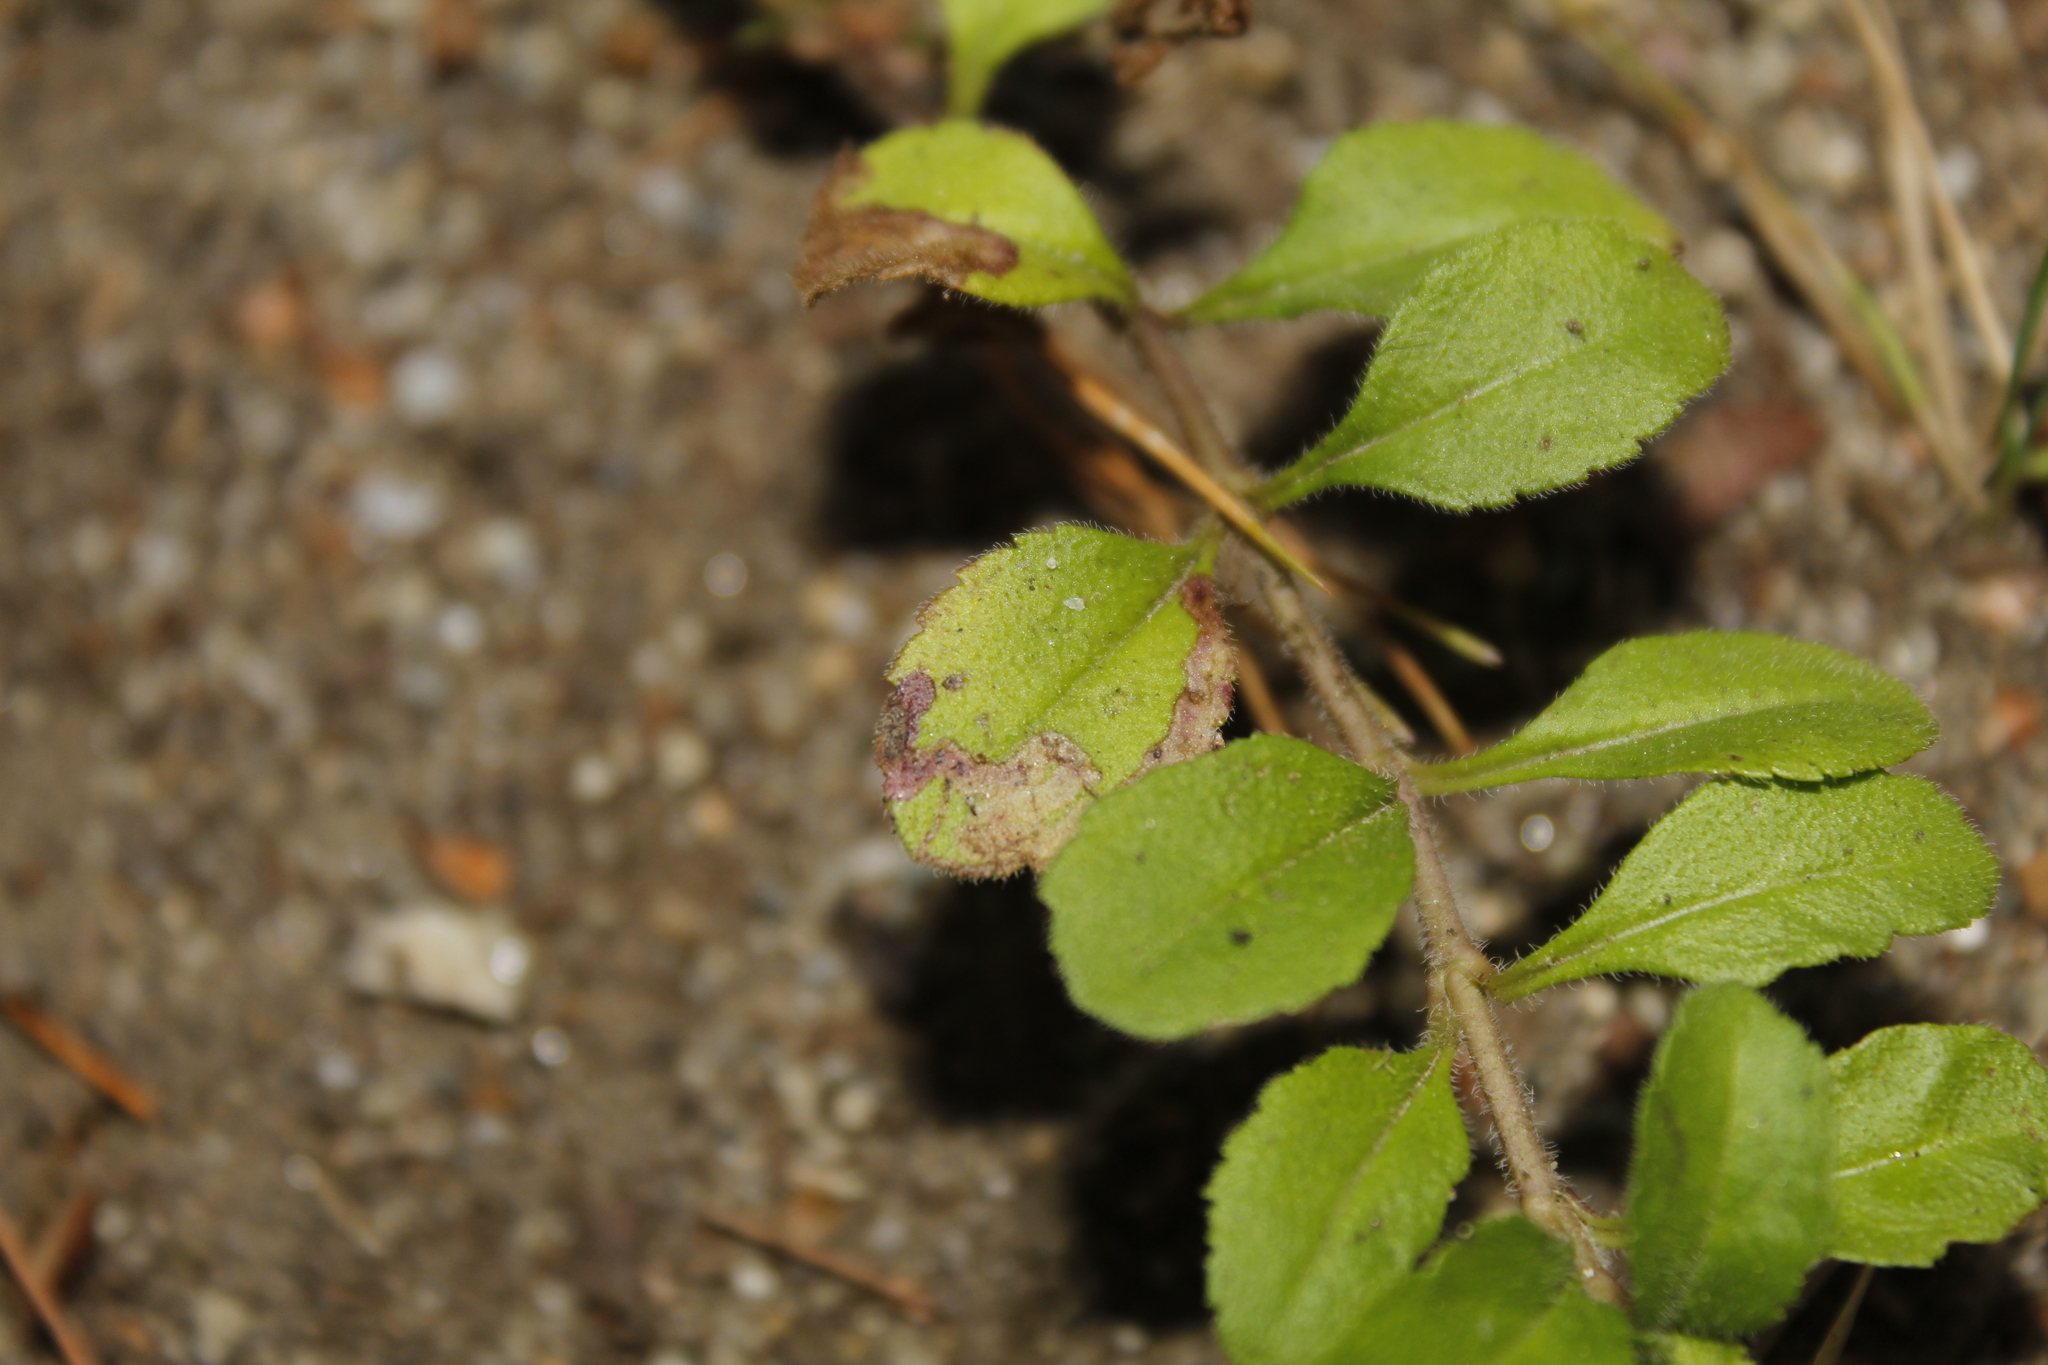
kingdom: Animalia
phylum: Arthropoda
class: Insecta
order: Diptera
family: Agromyzidae
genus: Phytomyza
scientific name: Phytomyza crassiseta
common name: Leaf-miner fly
